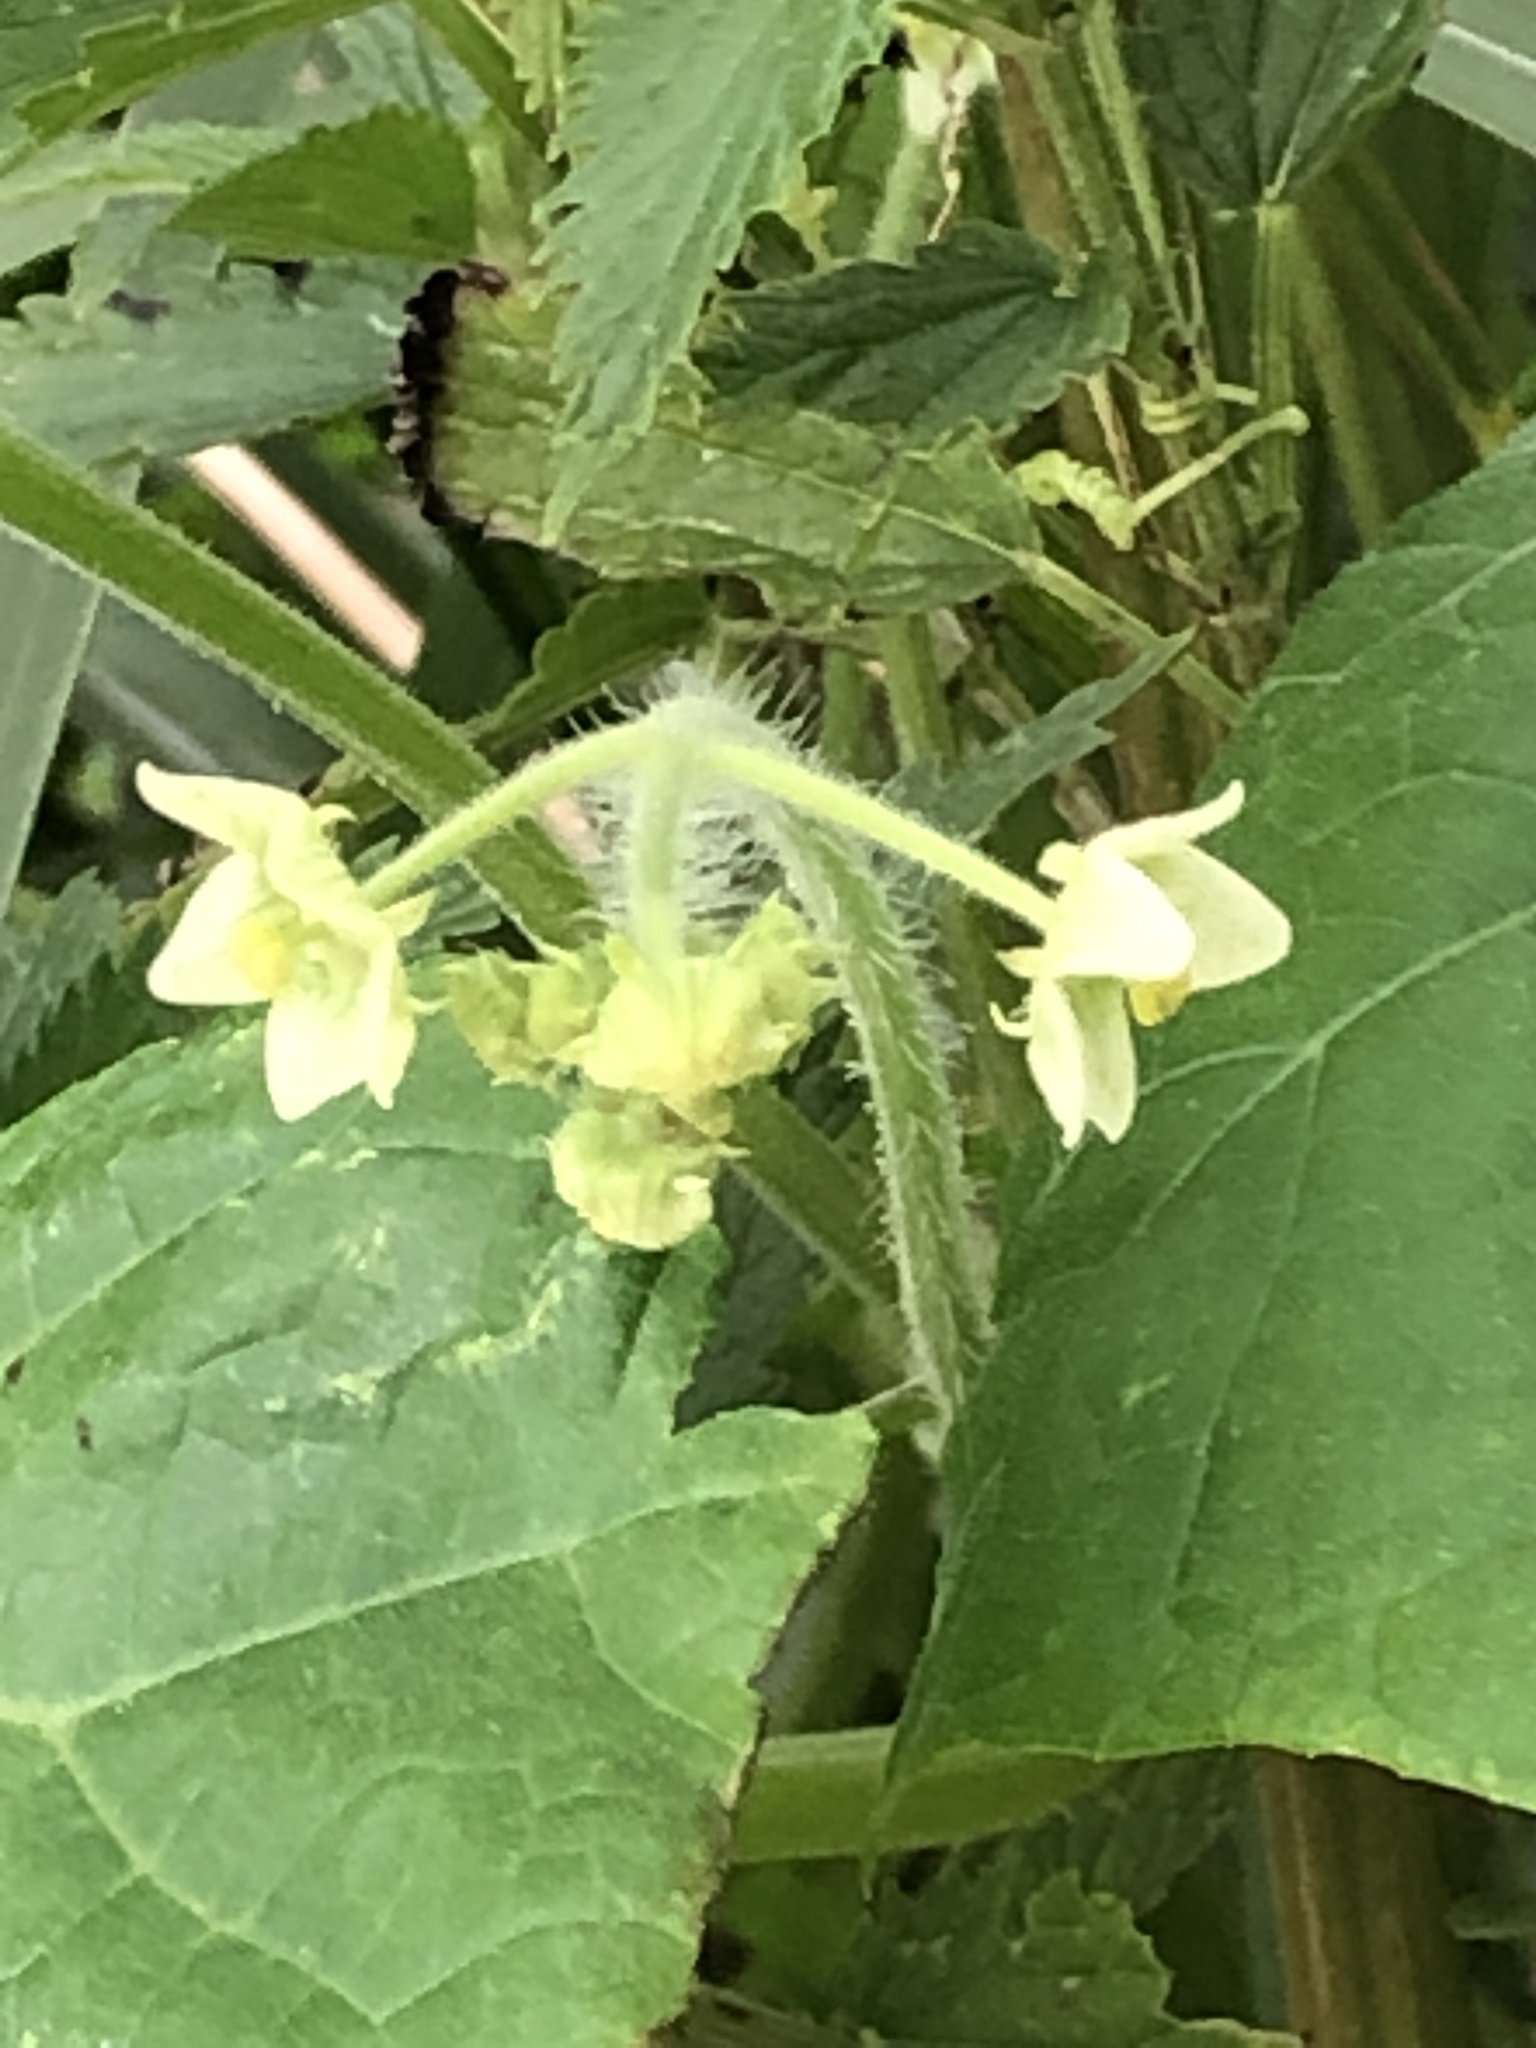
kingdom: Plantae
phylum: Tracheophyta
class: Magnoliopsida
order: Cucurbitales
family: Cucurbitaceae
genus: Sicyos
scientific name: Sicyos angulatus
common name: Angled burr cucumber
